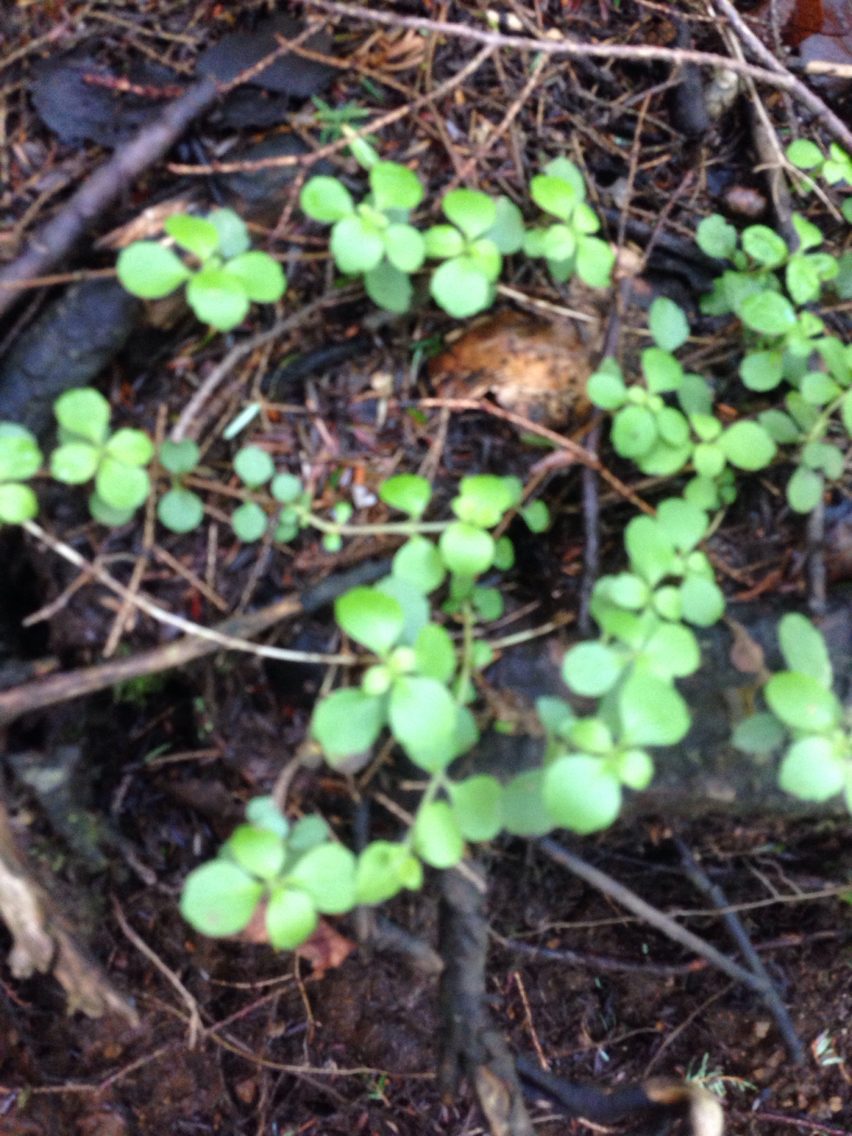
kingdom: Plantae
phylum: Tracheophyta
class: Magnoliopsida
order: Dipsacales
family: Caprifoliaceae
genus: Linnaea
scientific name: Linnaea borealis
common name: Twinflower
